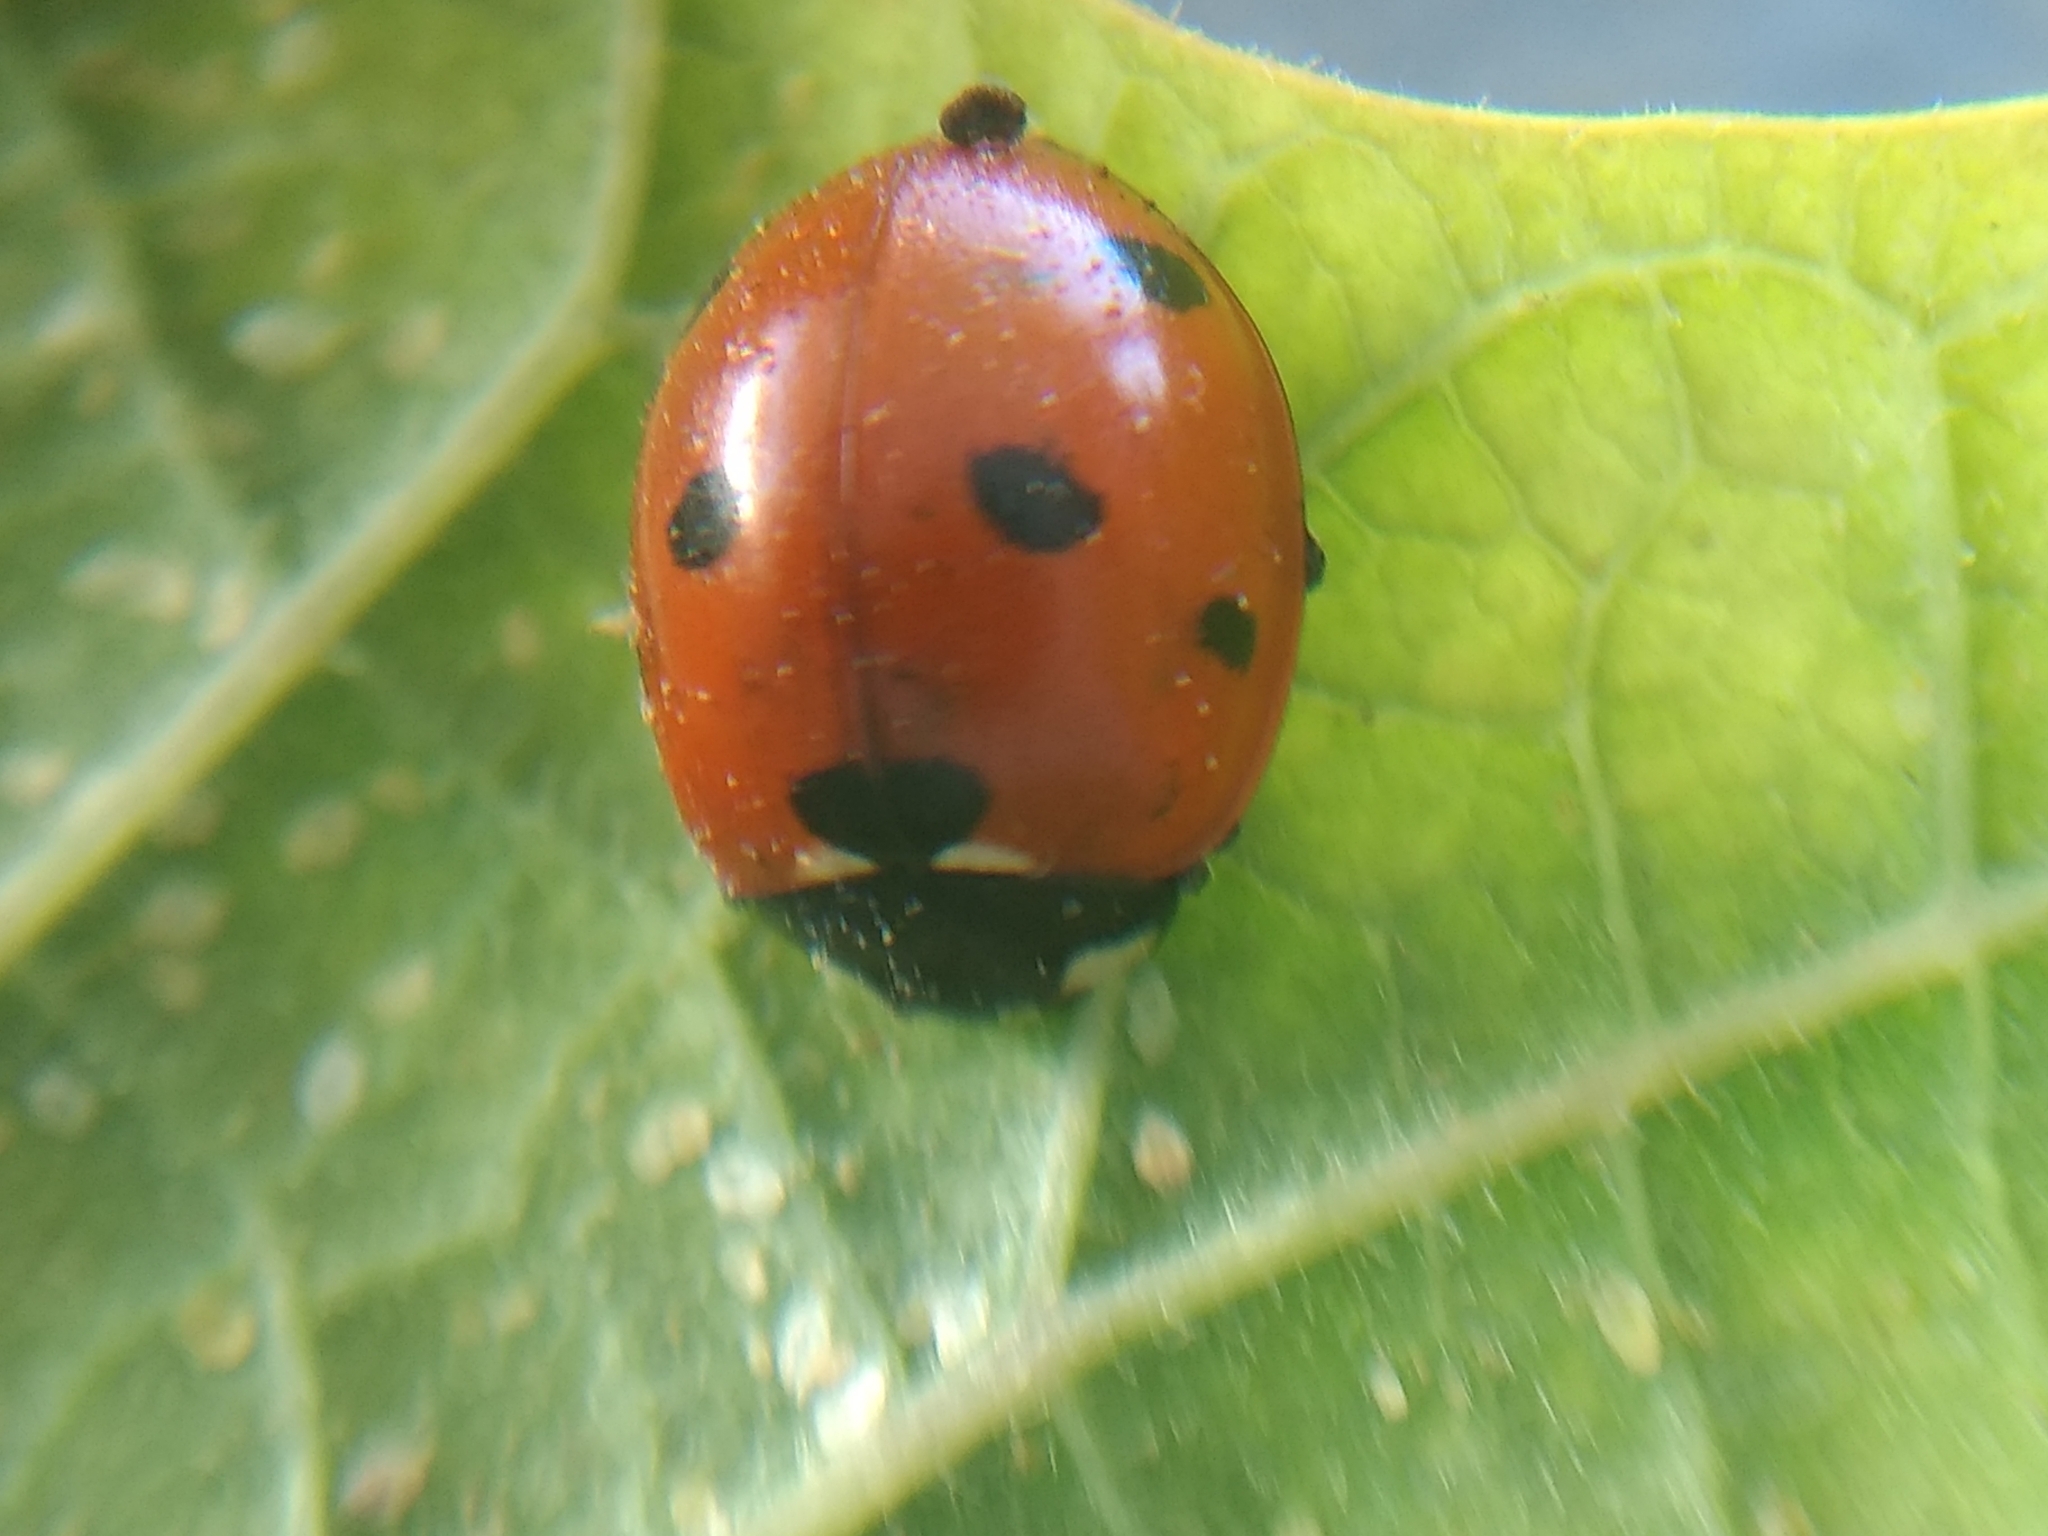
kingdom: Animalia
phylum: Arthropoda
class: Insecta
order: Coleoptera
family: Coccinellidae
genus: Coccinella
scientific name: Coccinella septempunctata
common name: Sevenspotted lady beetle
